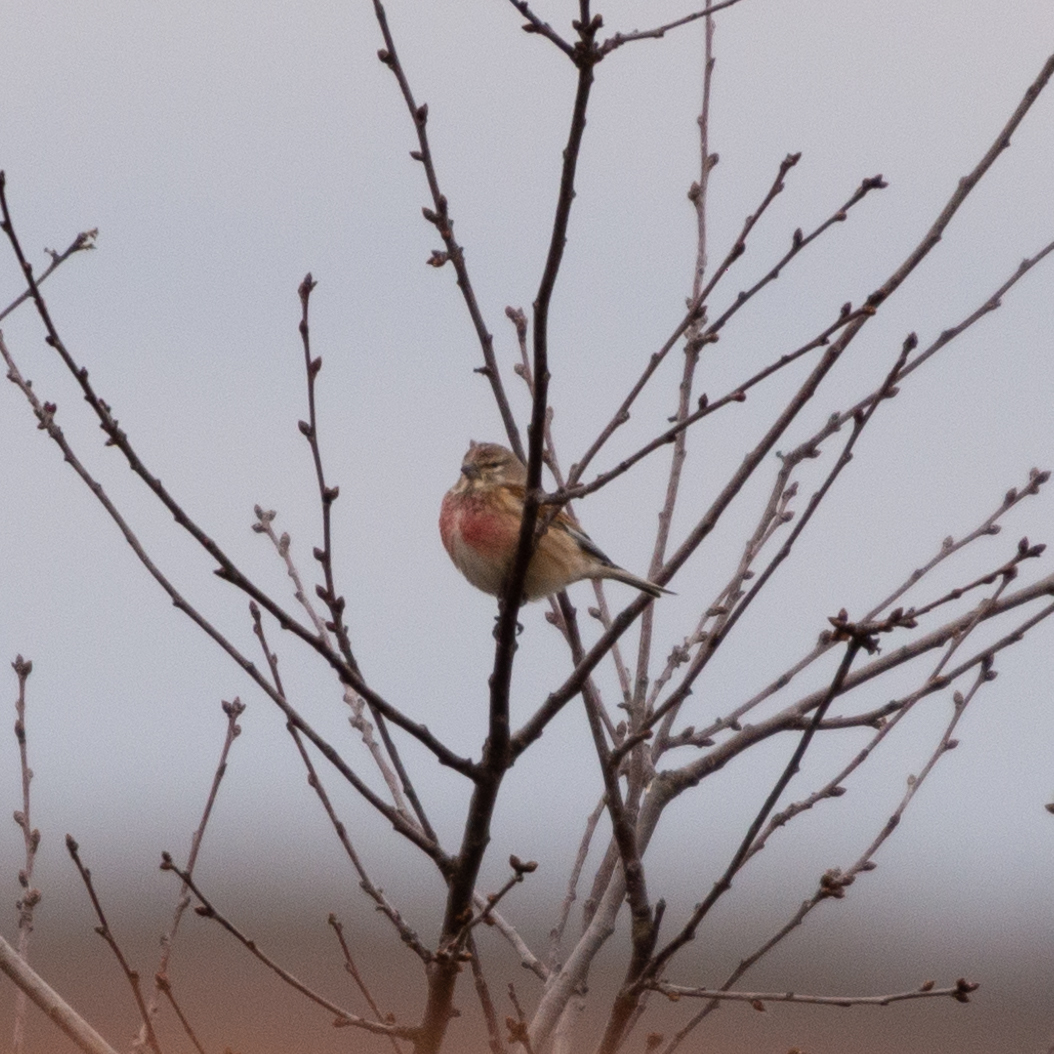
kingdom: Animalia
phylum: Chordata
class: Aves
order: Passeriformes
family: Fringillidae
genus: Linaria
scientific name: Linaria cannabina
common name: Common linnet
